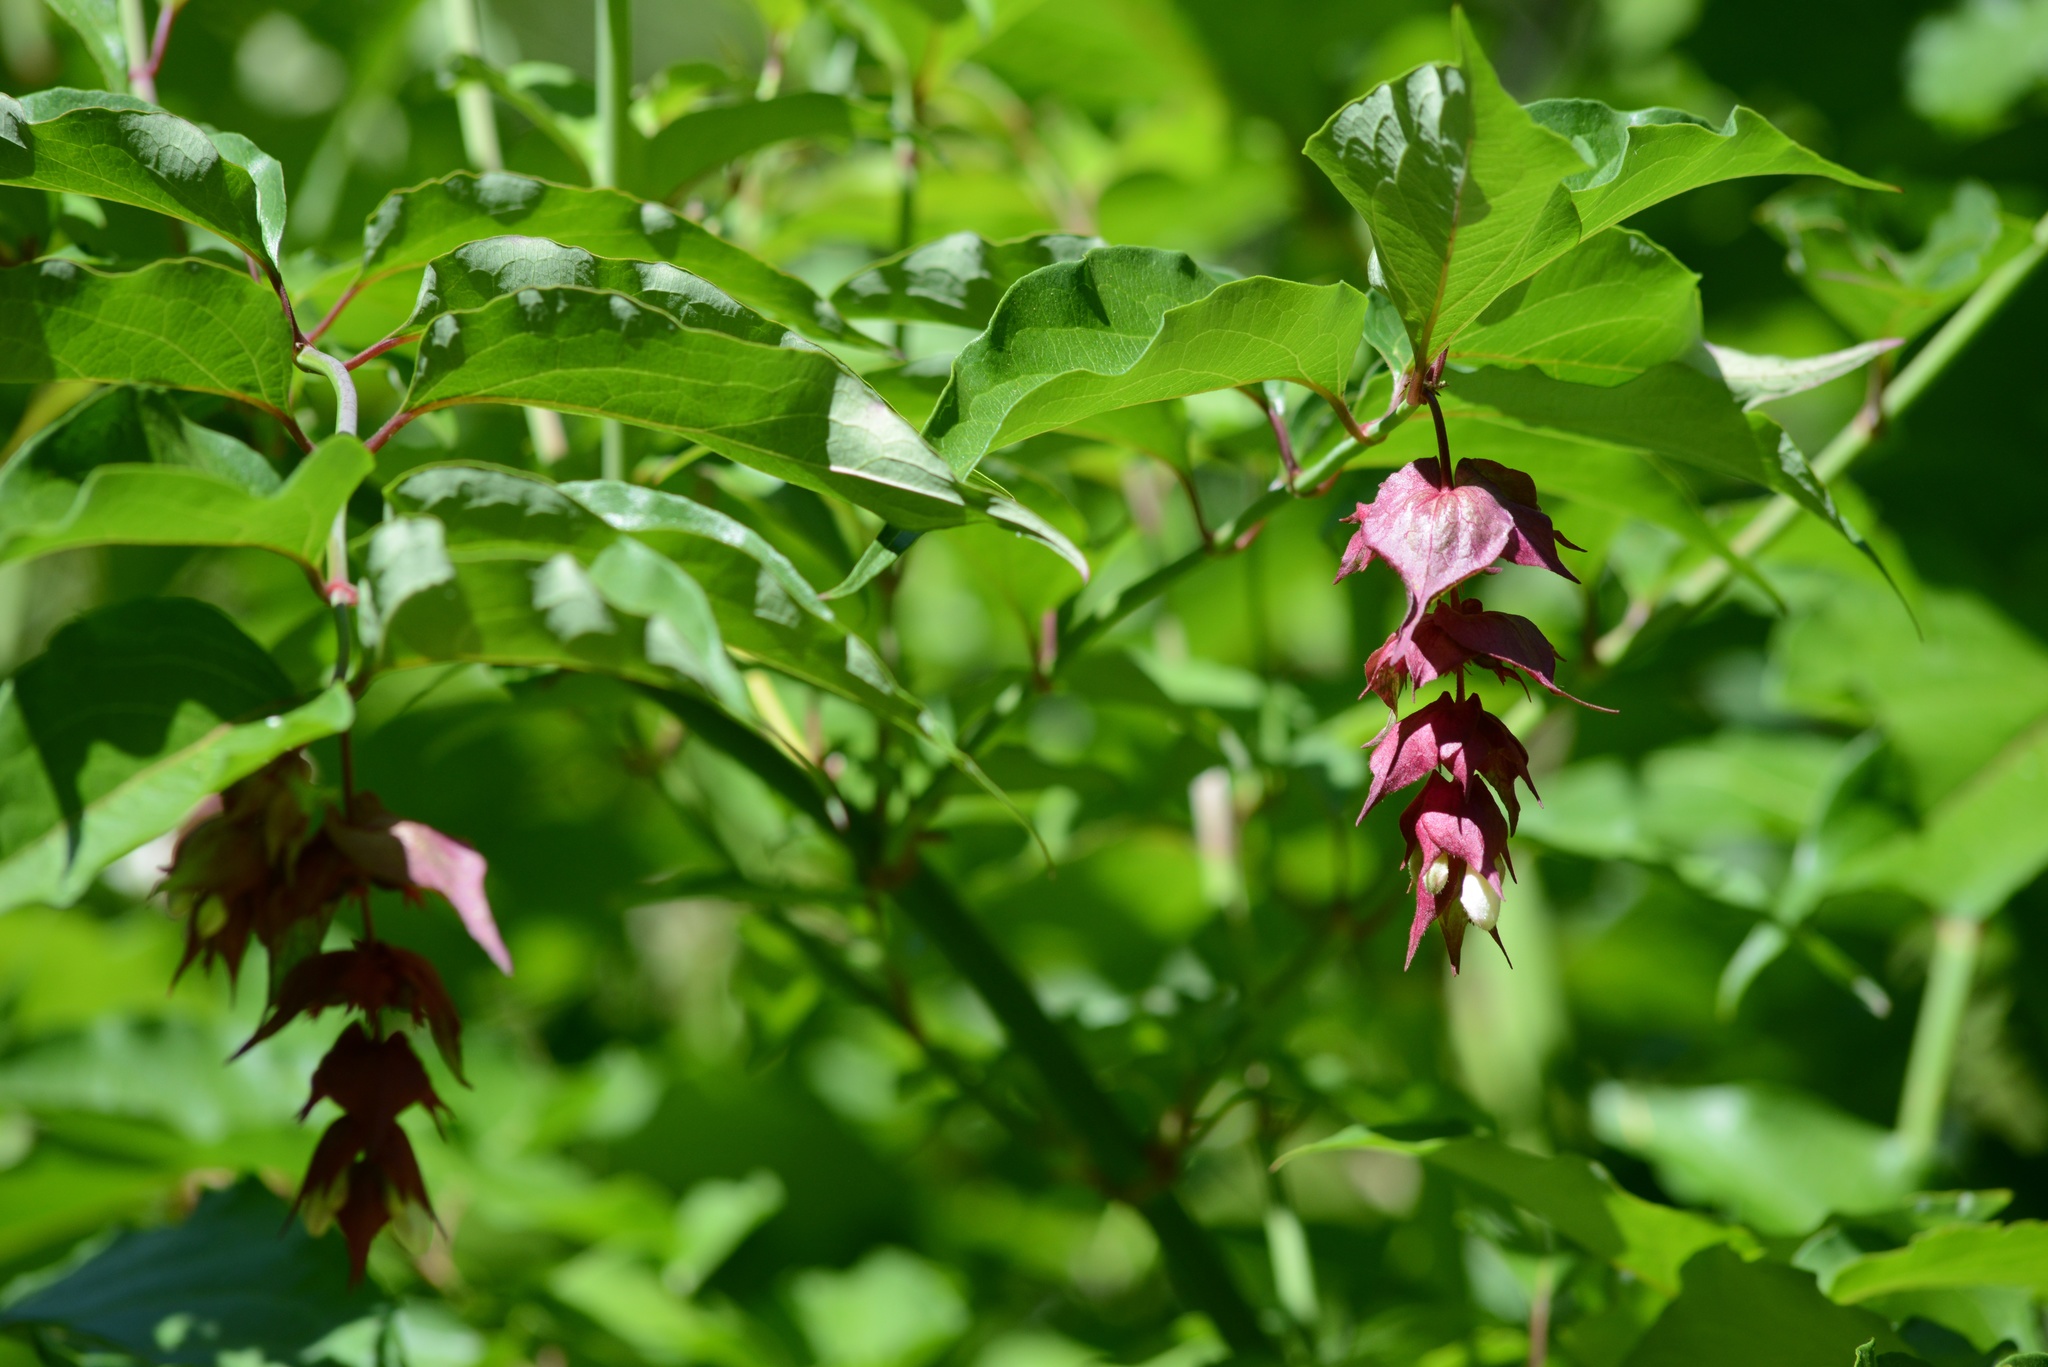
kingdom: Plantae
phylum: Tracheophyta
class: Magnoliopsida
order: Dipsacales
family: Caprifoliaceae
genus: Leycesteria
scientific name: Leycesteria formosa
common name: Himalayan honeysuckle
